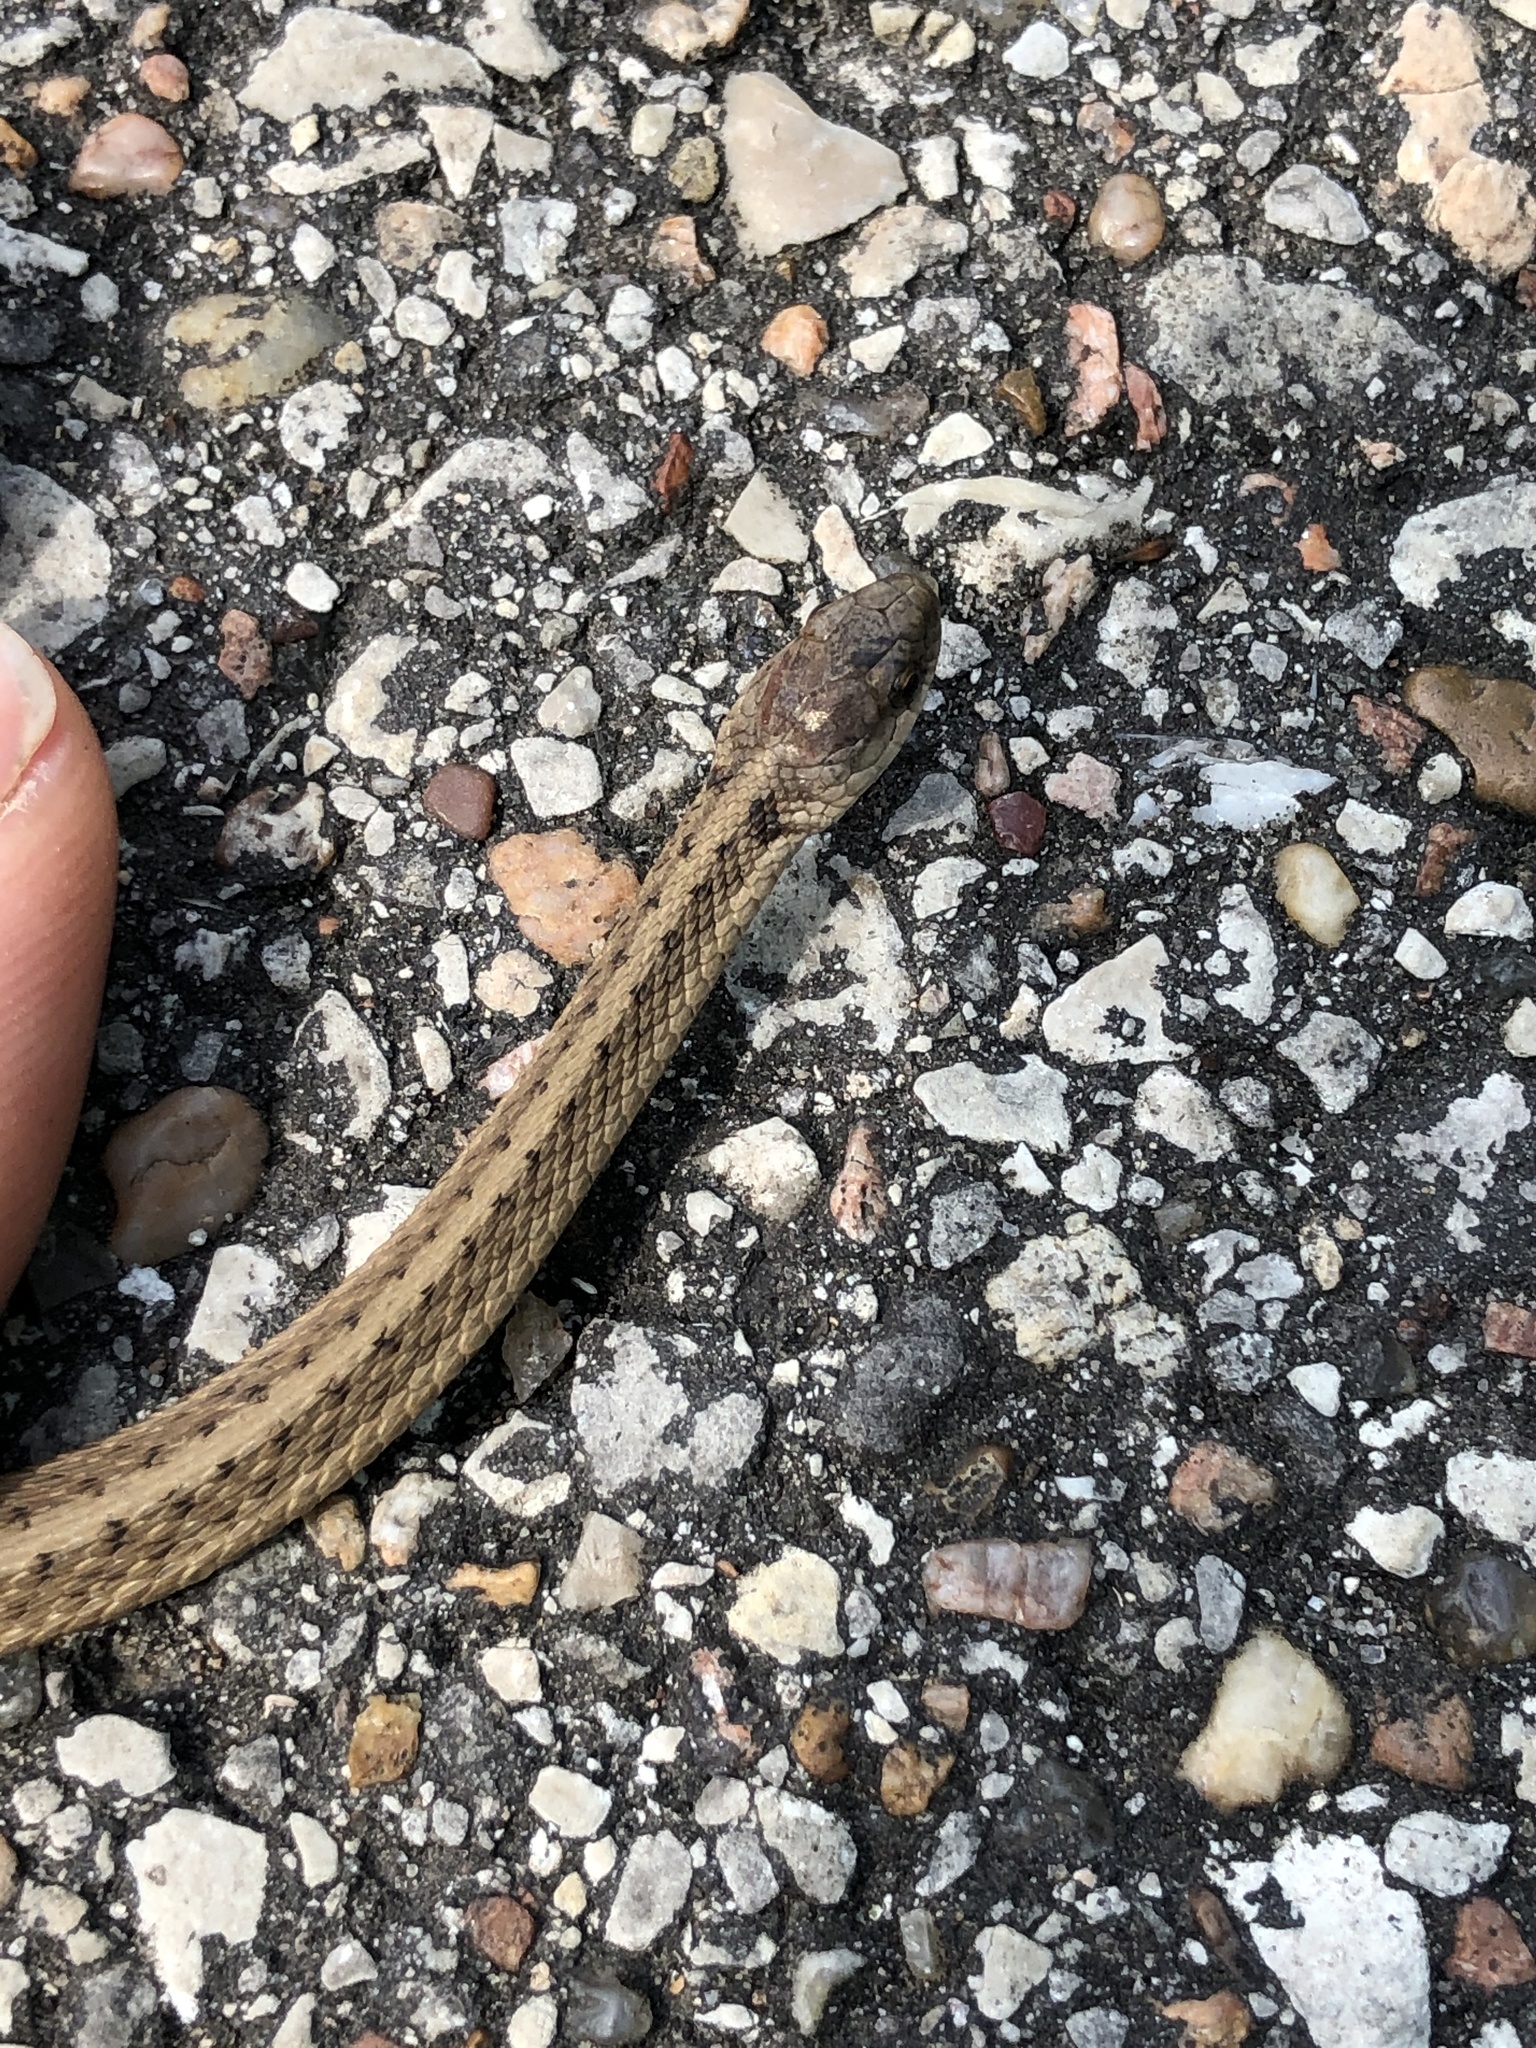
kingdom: Animalia
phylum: Chordata
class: Squamata
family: Colubridae
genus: Storeria
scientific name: Storeria dekayi
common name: (dekay’s) brown snake
